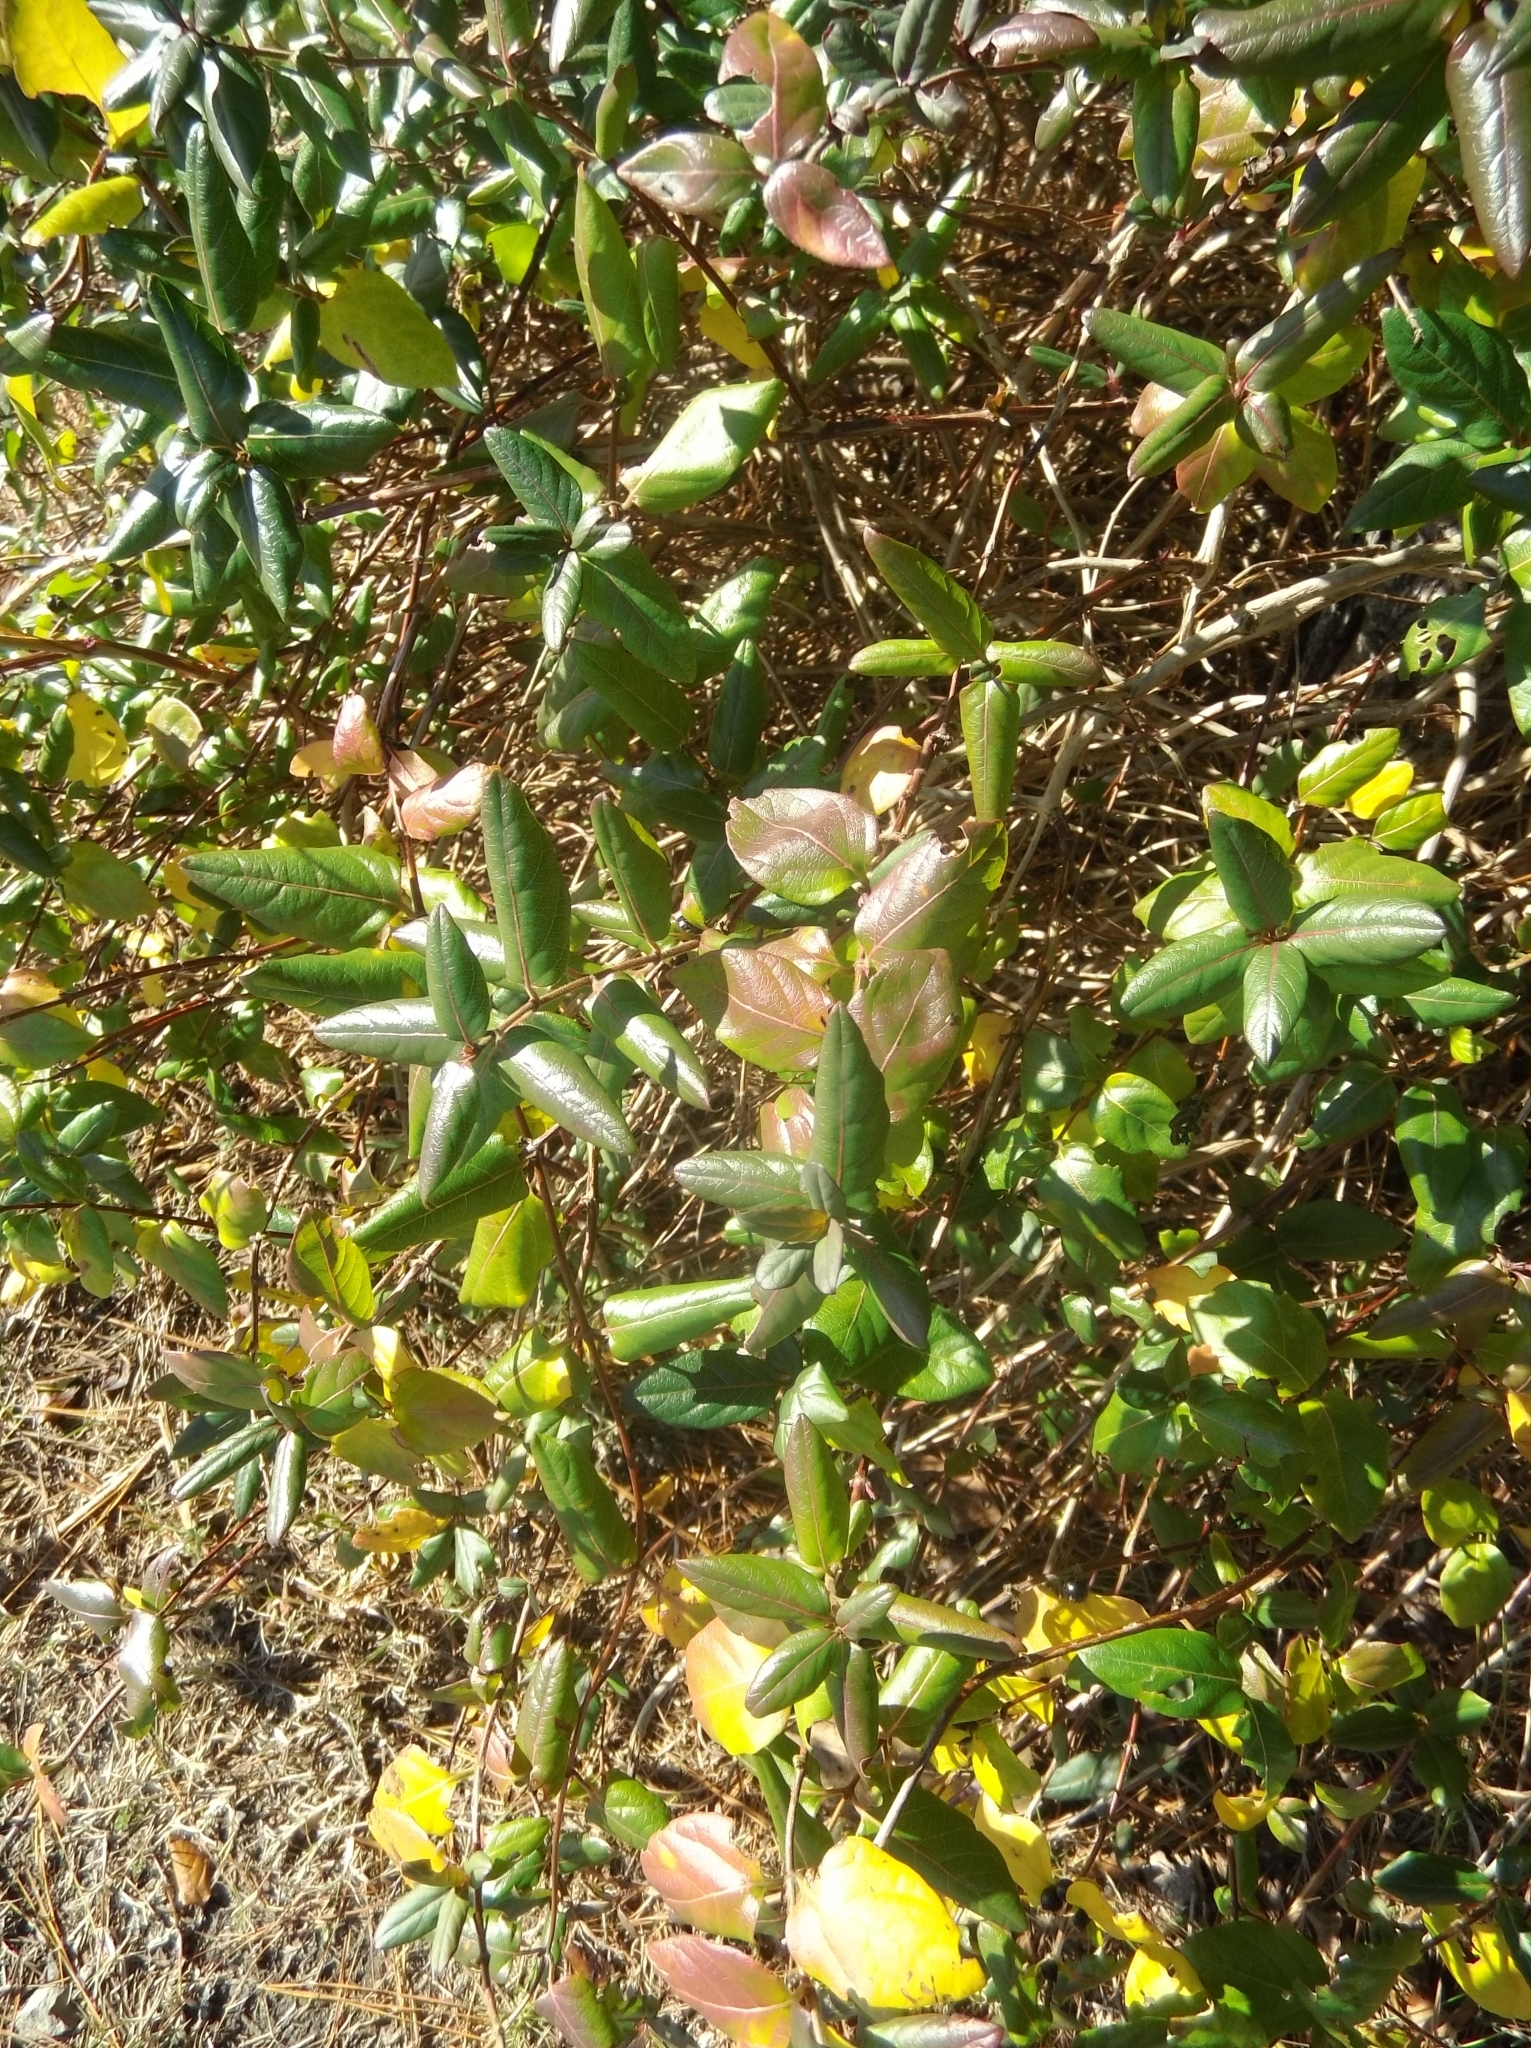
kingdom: Plantae
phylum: Tracheophyta
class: Magnoliopsida
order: Dipsacales
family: Caprifoliaceae
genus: Lonicera
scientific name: Lonicera japonica
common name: Japanese honeysuckle
